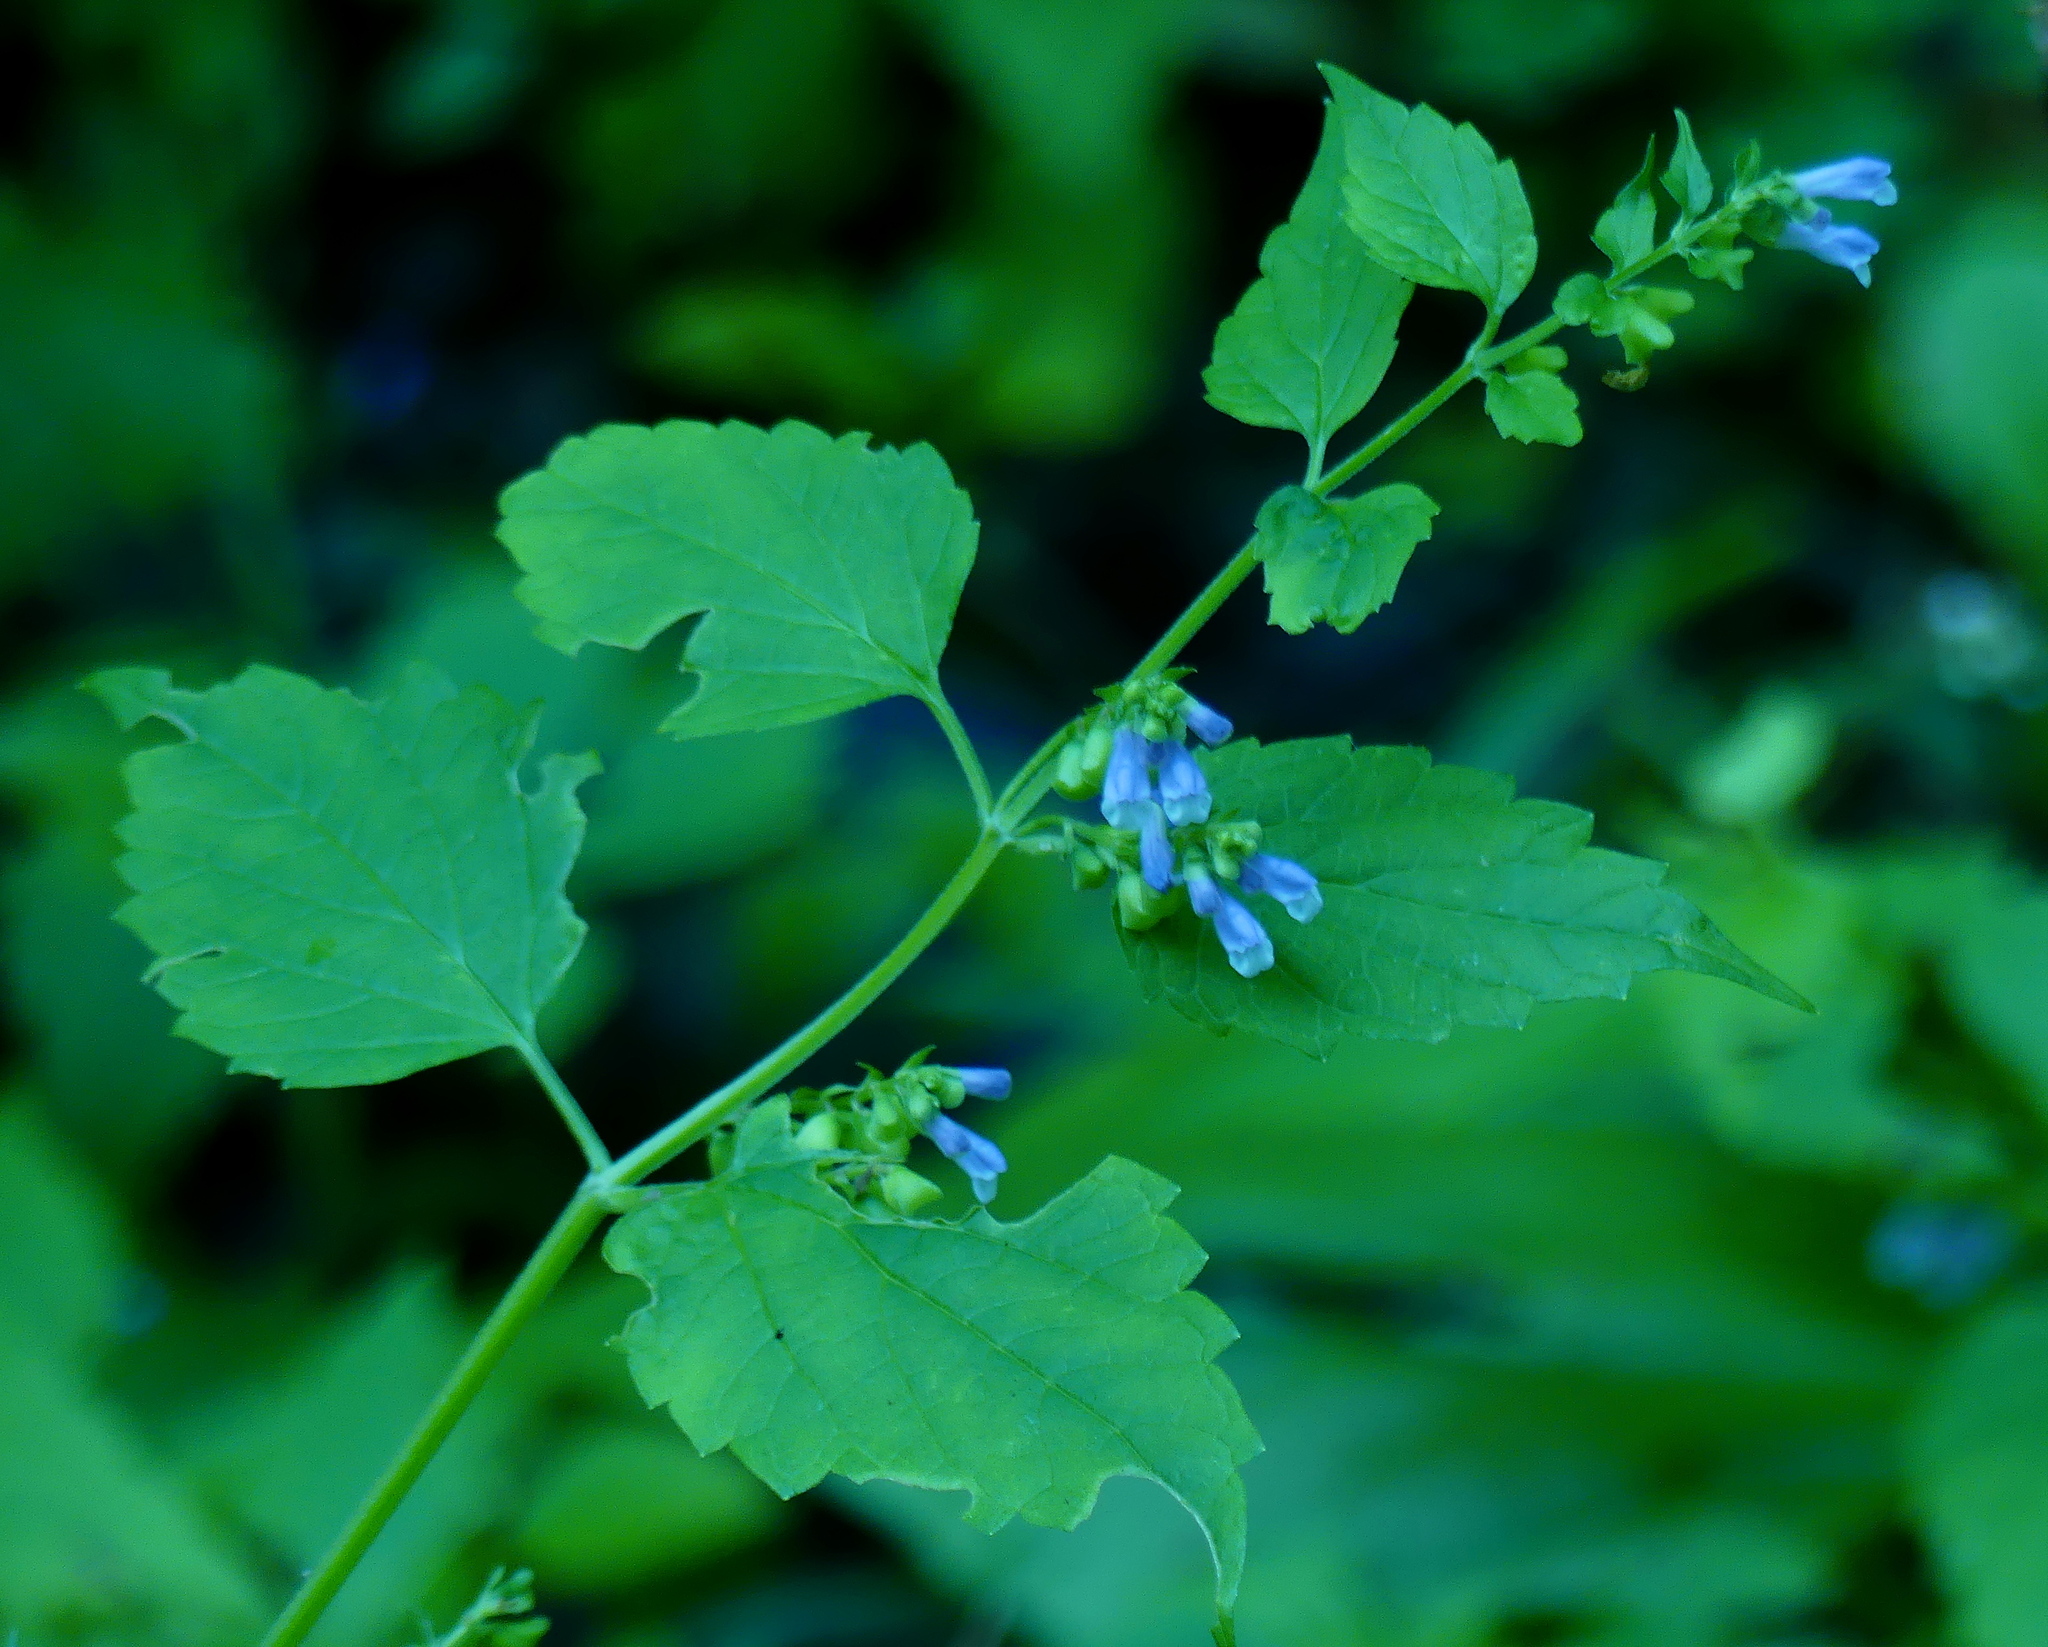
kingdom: Plantae
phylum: Tracheophyta
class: Magnoliopsida
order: Lamiales
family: Lamiaceae
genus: Scutellaria
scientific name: Scutellaria lateriflora
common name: Blue skullcap
